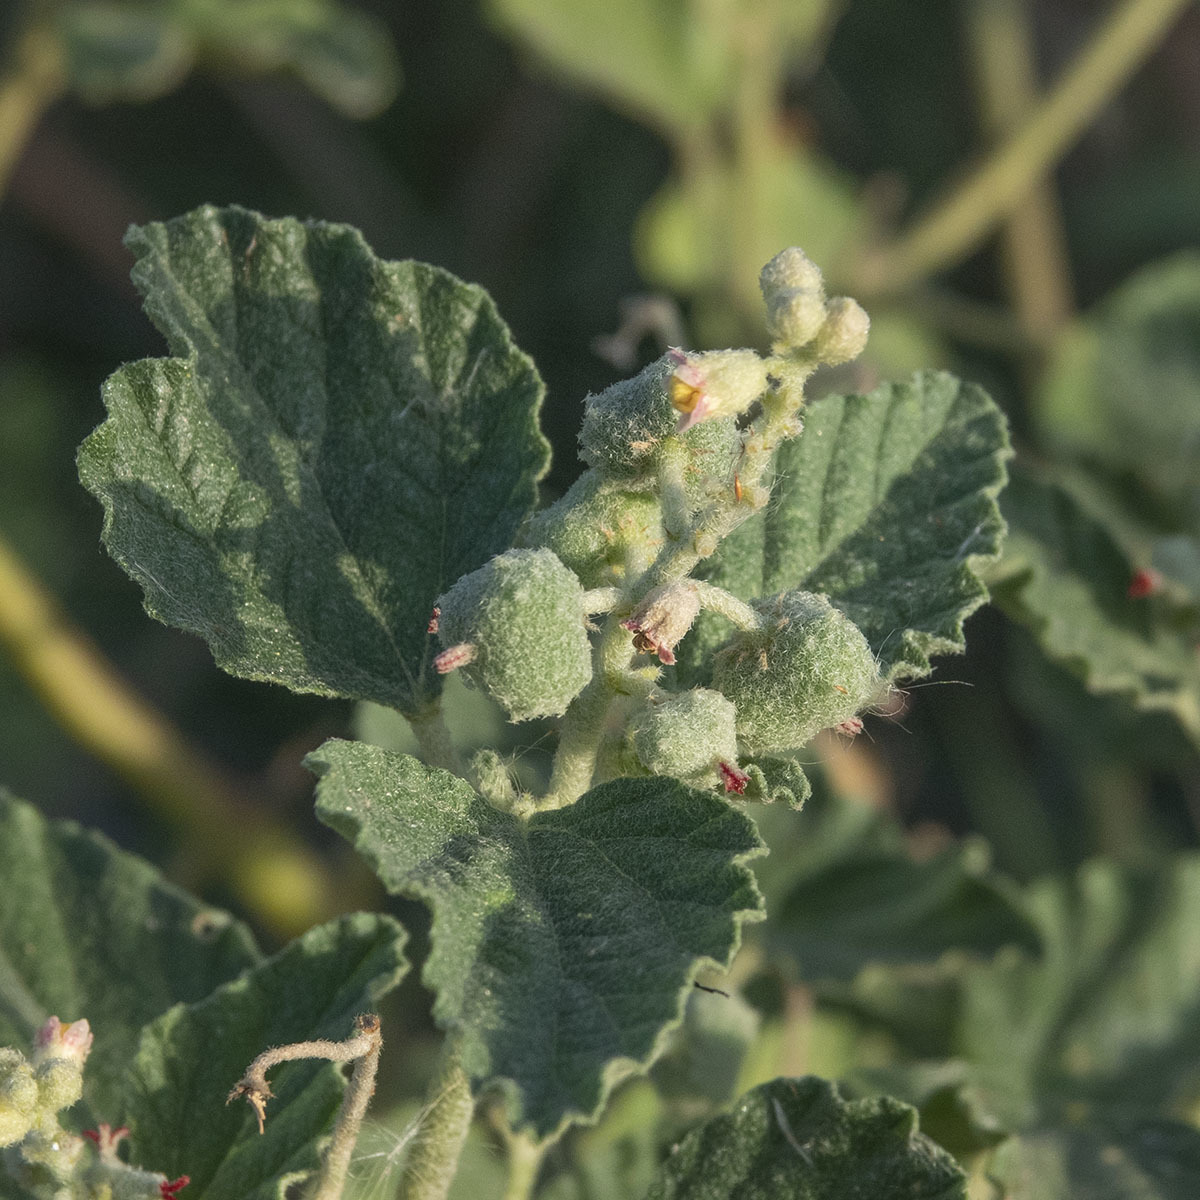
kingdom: Plantae
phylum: Tracheophyta
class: Magnoliopsida
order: Malpighiales
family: Euphorbiaceae
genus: Chrozophora
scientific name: Chrozophora rottleri
